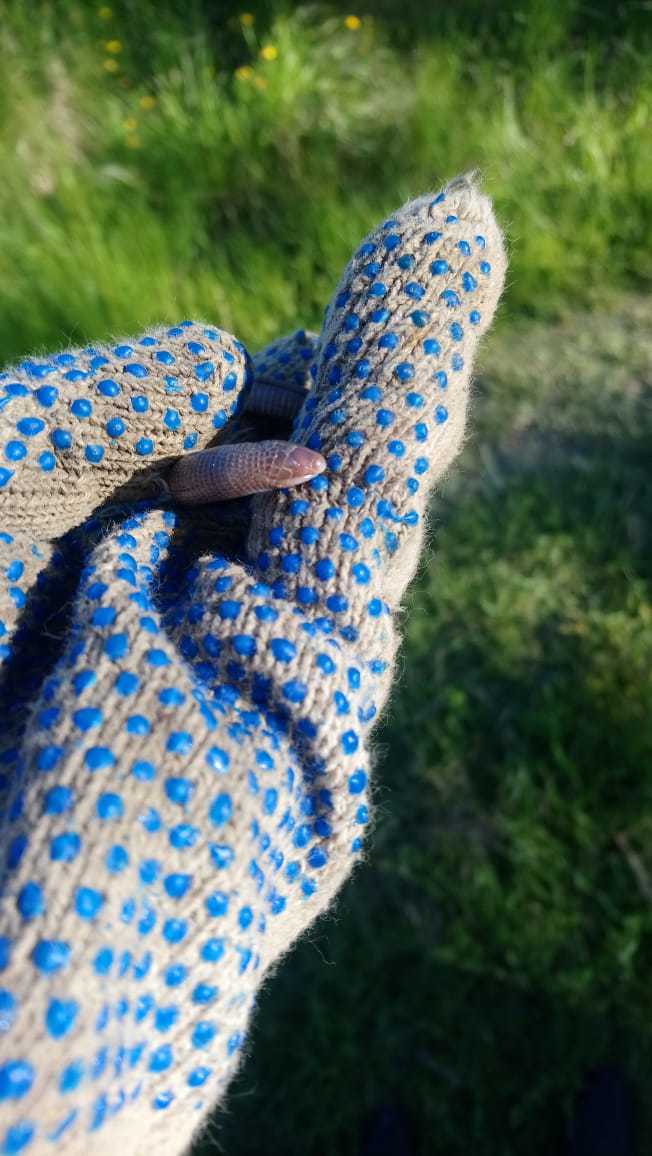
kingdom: Animalia
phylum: Chordata
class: Squamata
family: Amphisbaenidae
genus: Amphisbaena
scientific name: Amphisbaena darwinii
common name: Darwin's ringed worm lizard
